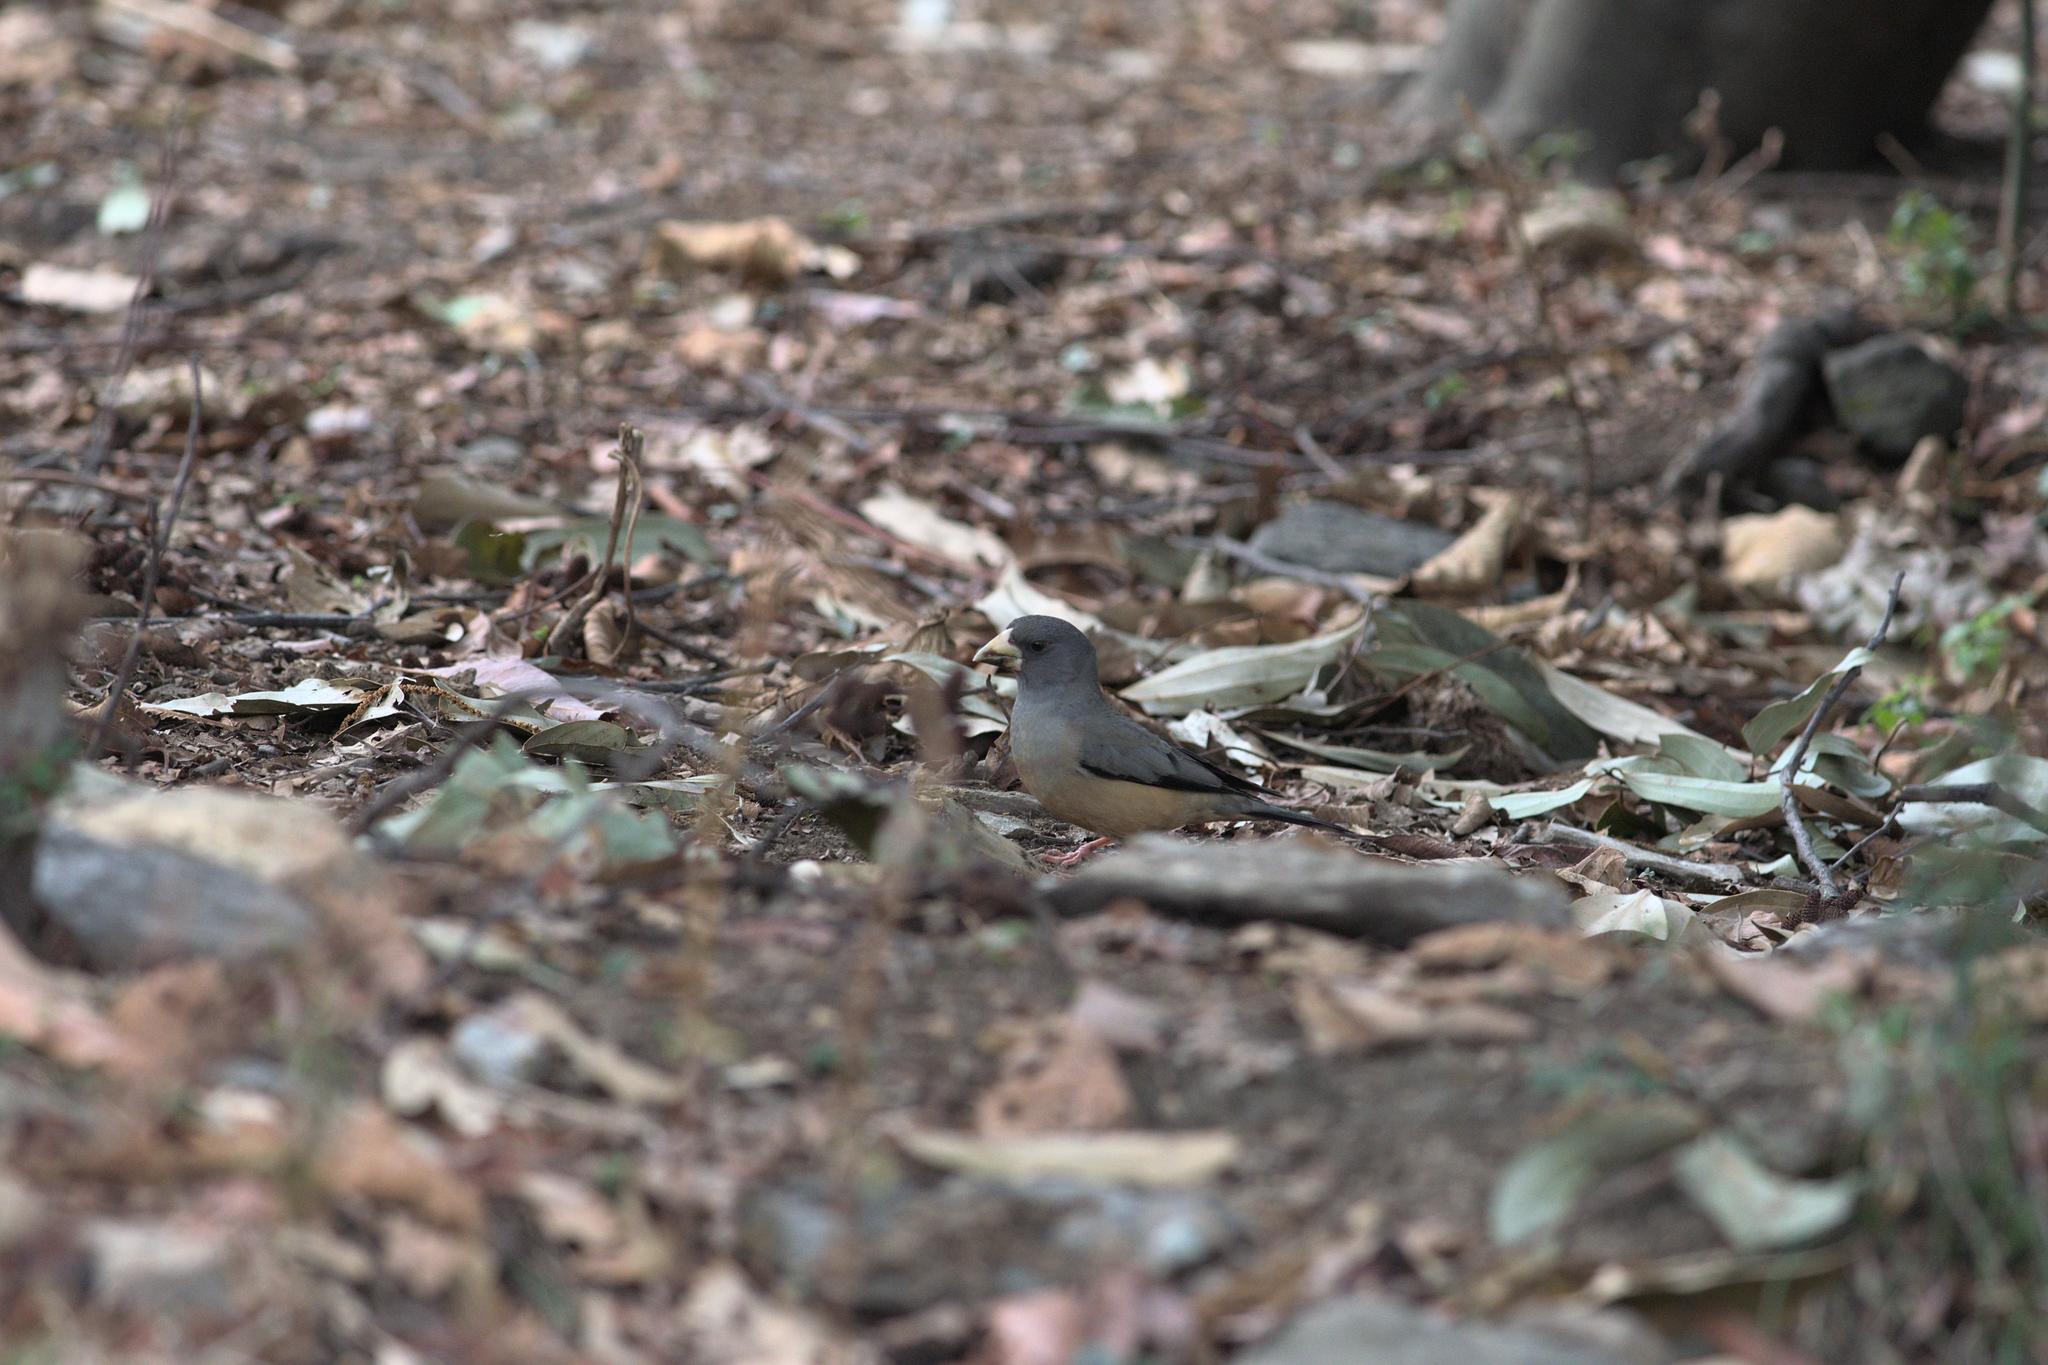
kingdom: Animalia
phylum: Chordata
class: Aves
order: Passeriformes
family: Fringillidae
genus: Mycerobas
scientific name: Mycerobas icterioides
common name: Black-and-yellow grosbeak
